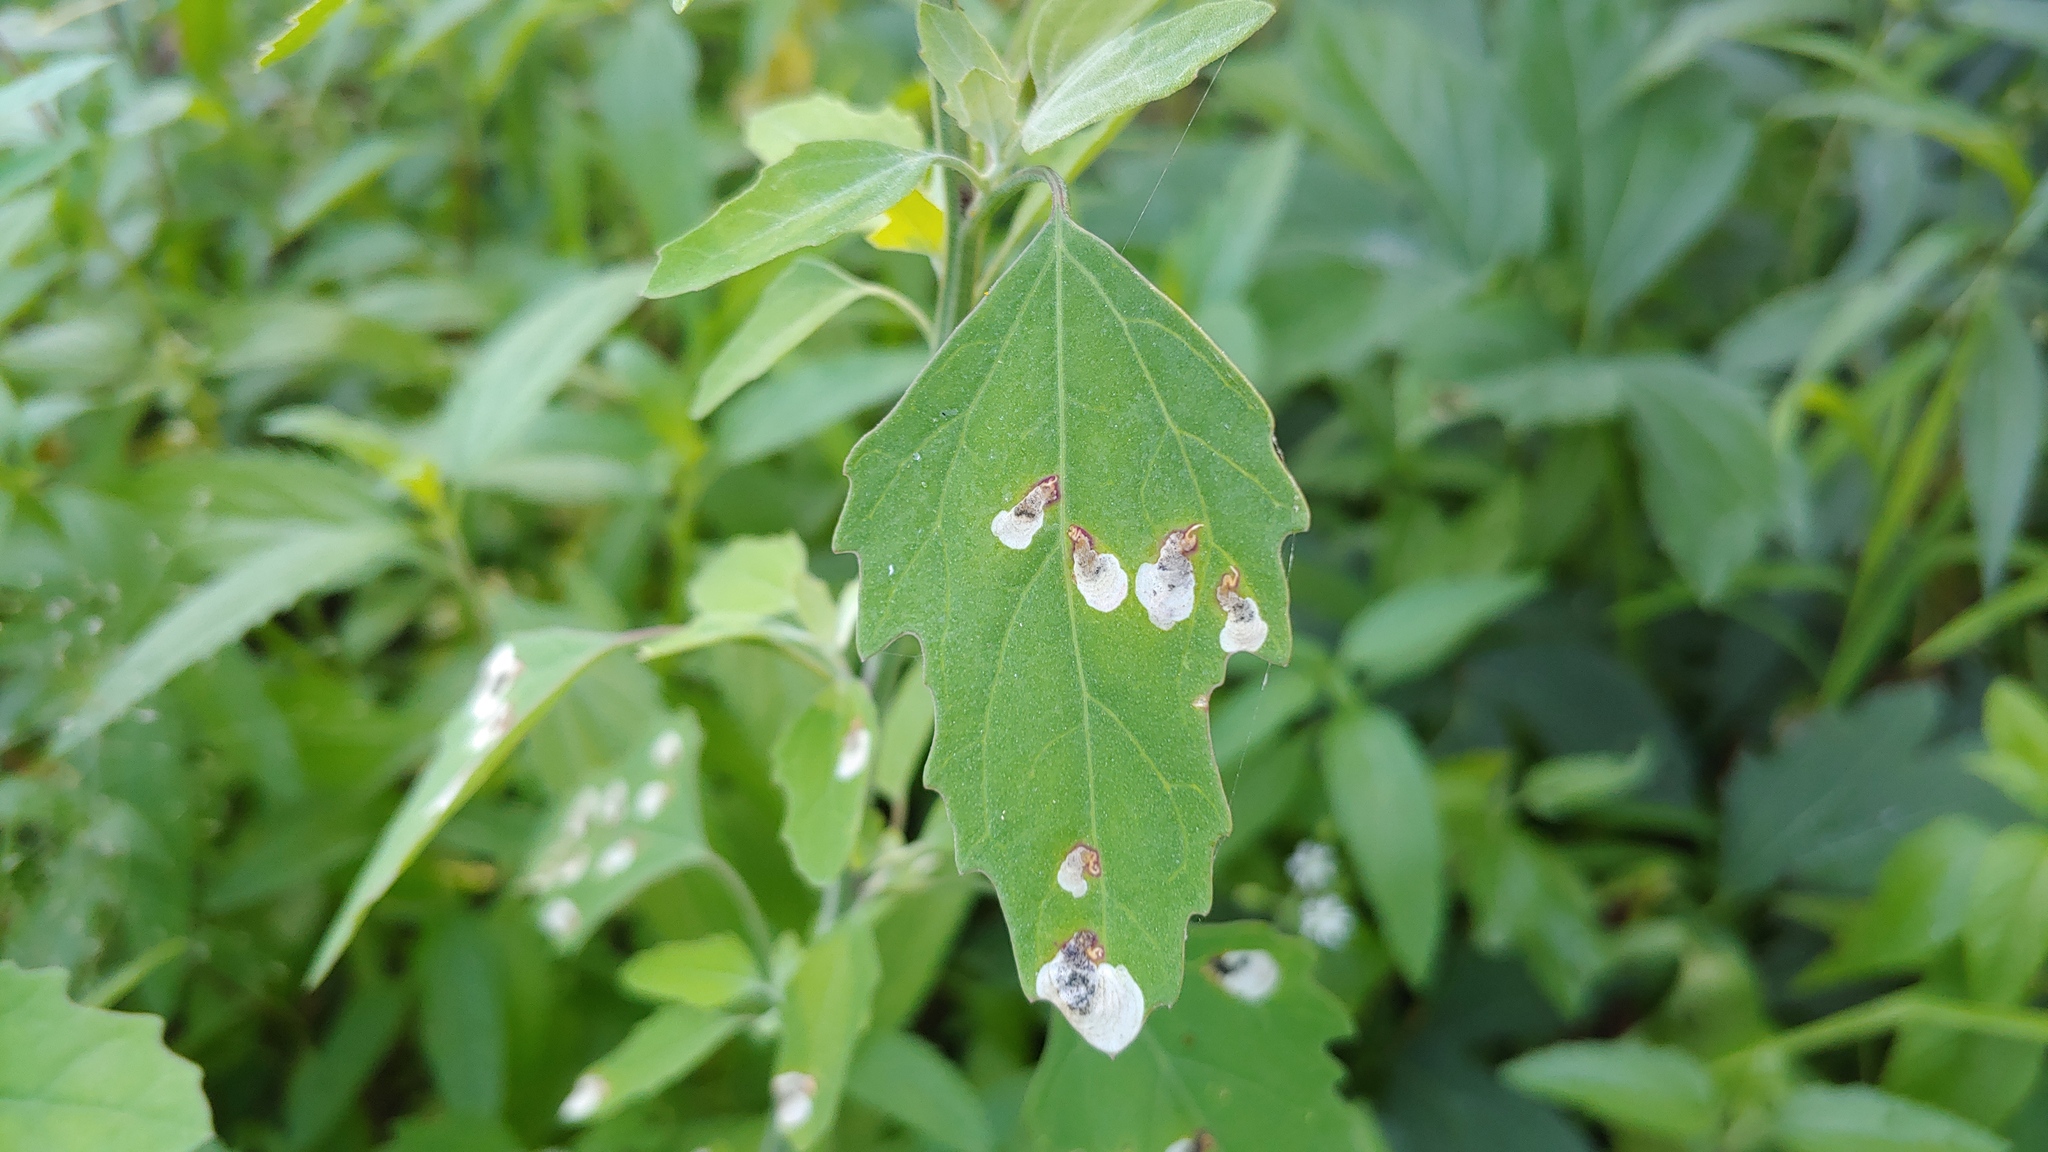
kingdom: Animalia
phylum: Arthropoda
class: Insecta
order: Lepidoptera
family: Gelechiidae
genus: Chrysoesthia
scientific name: Chrysoesthia sexguttella
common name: Moth
